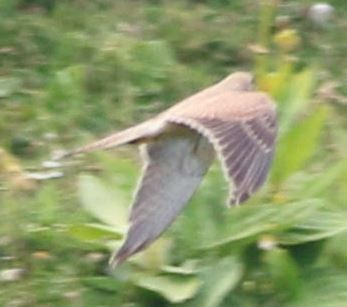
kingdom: Animalia
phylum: Chordata
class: Aves
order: Falconiformes
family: Falconidae
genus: Falco
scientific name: Falco tinnunculus
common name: Common kestrel
